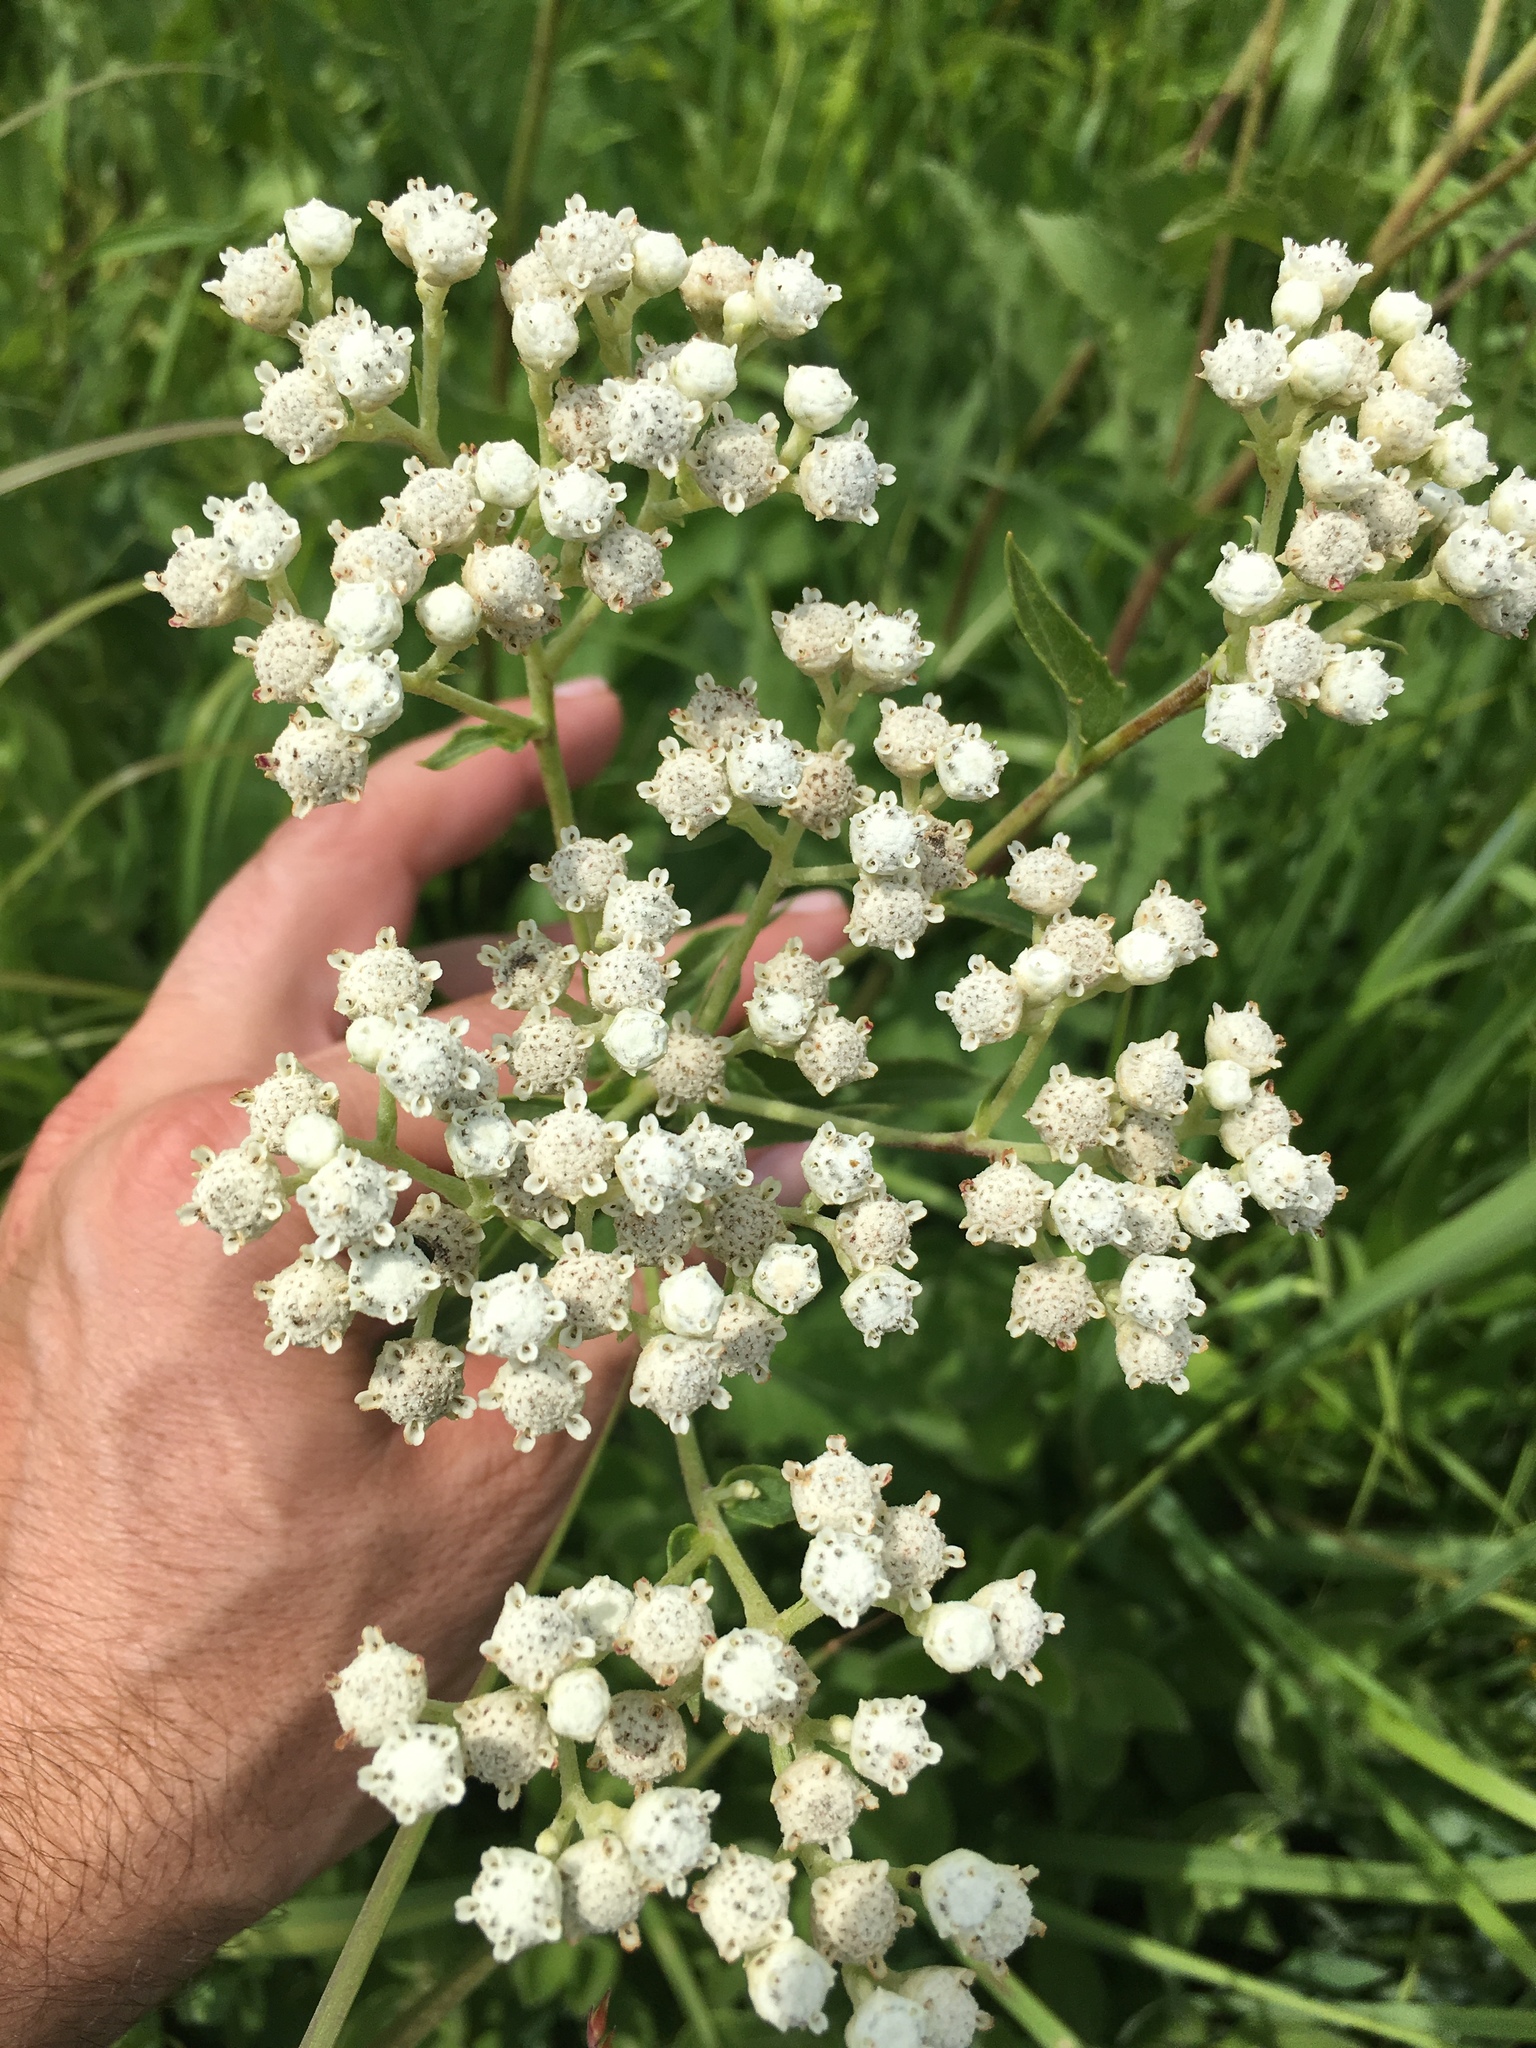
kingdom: Plantae
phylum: Tracheophyta
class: Magnoliopsida
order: Asterales
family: Asteraceae
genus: Parthenium
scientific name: Parthenium integrifolium
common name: American feverfew
